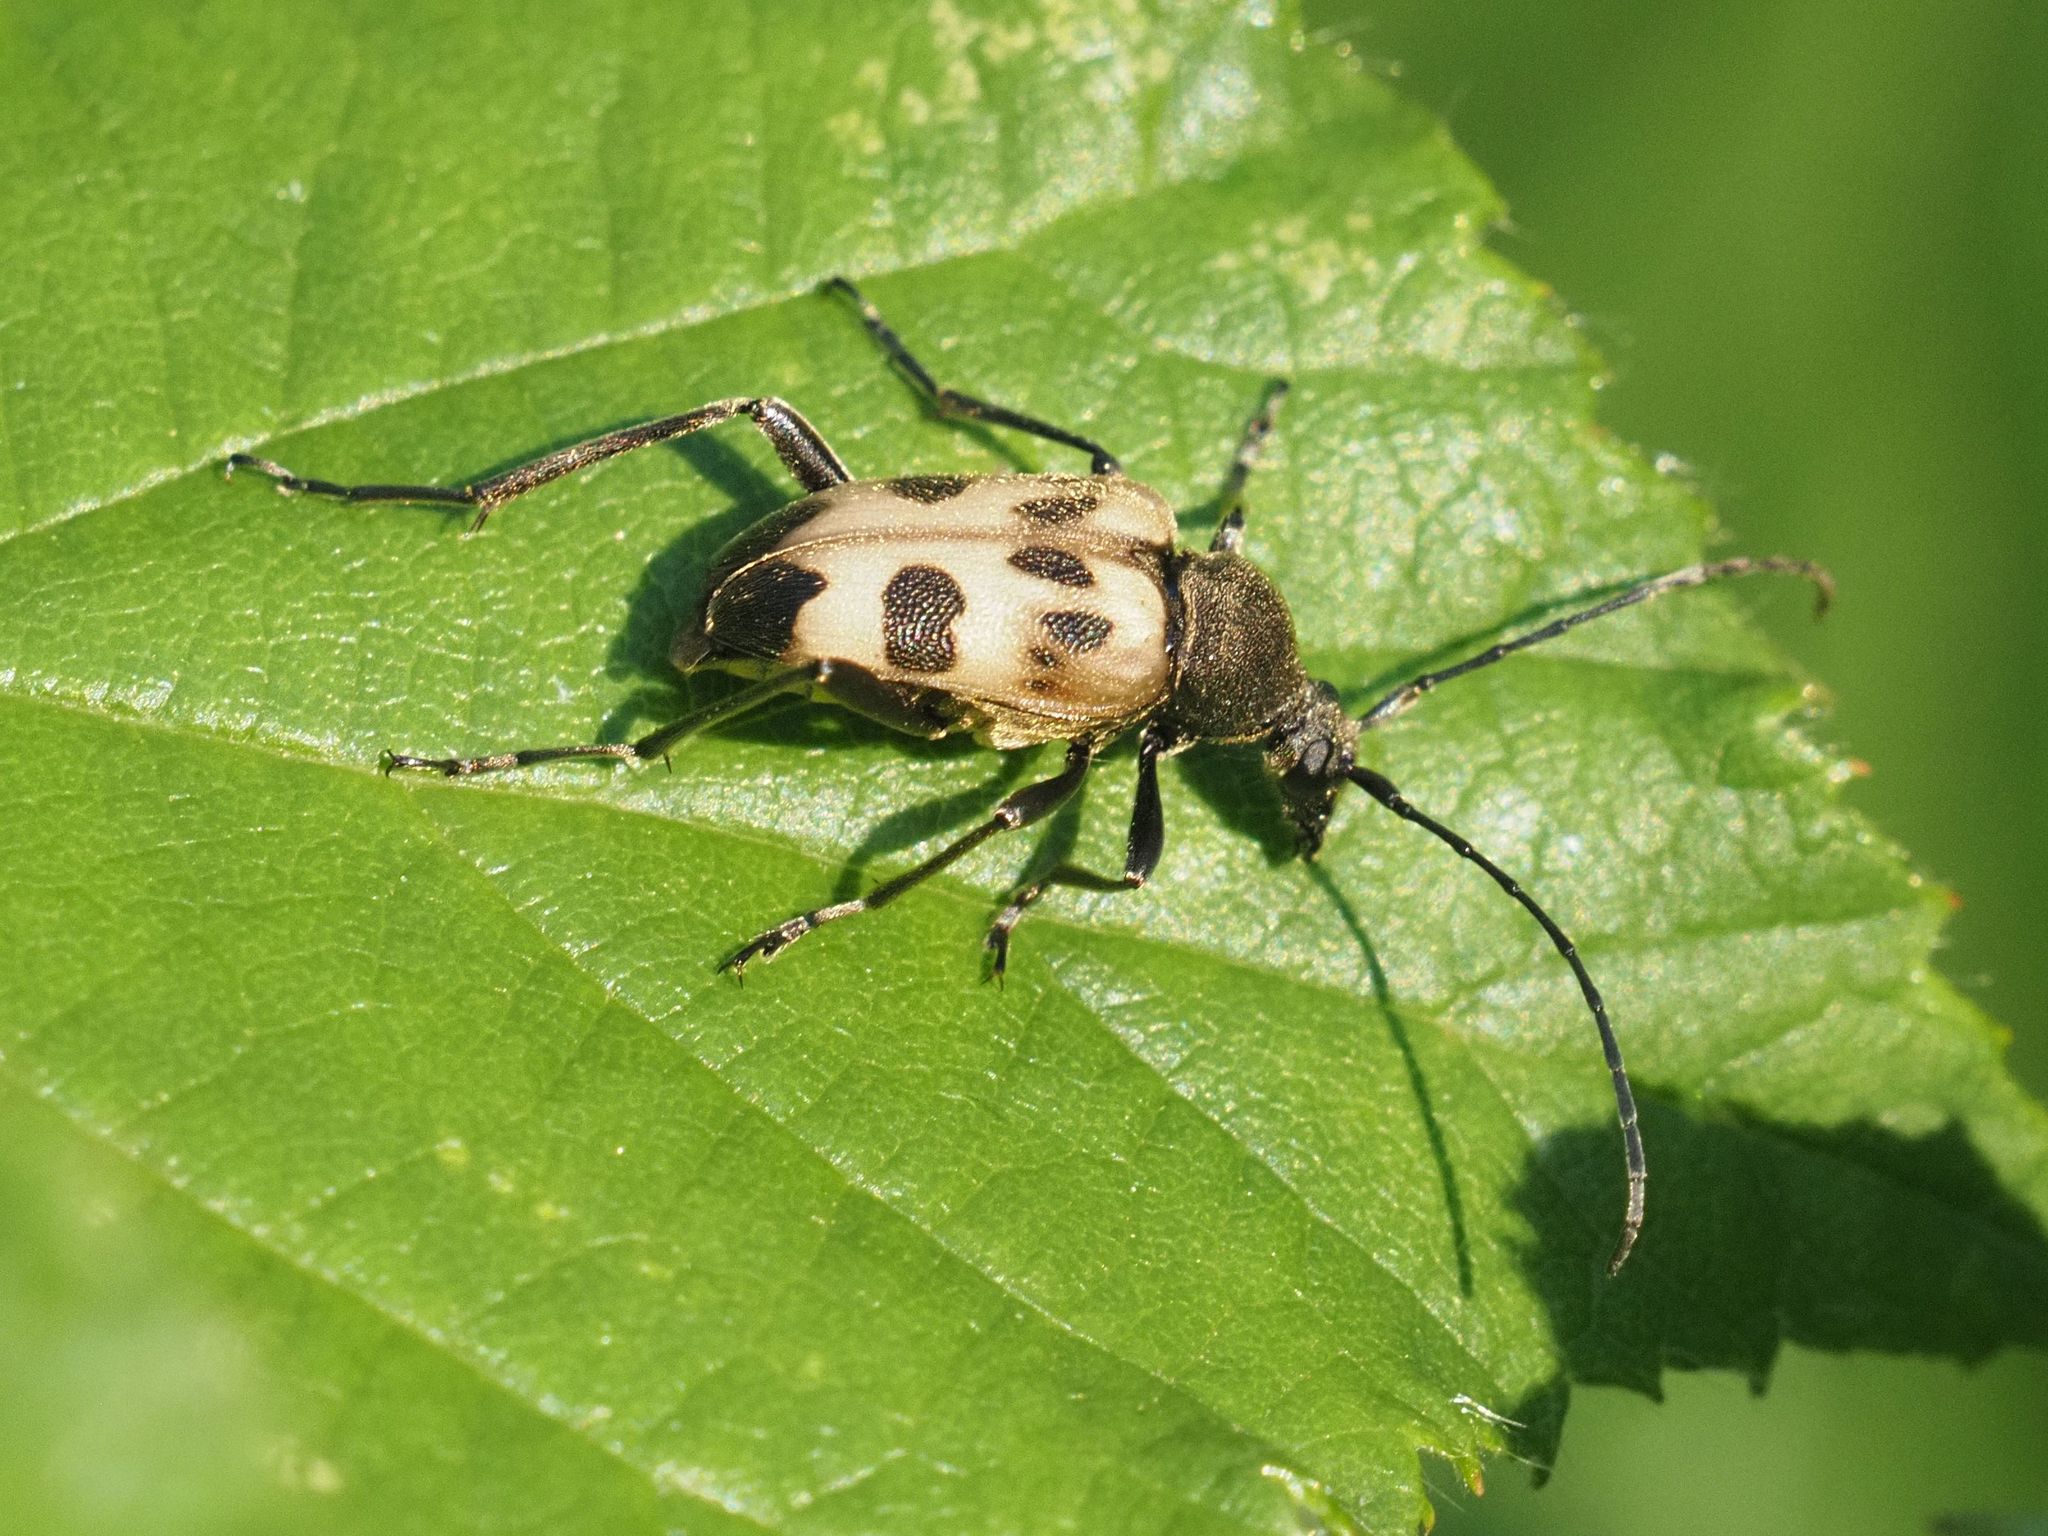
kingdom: Animalia
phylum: Arthropoda
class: Insecta
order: Coleoptera
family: Cerambycidae
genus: Pachytodes
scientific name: Pachytodes cerambyciformis
